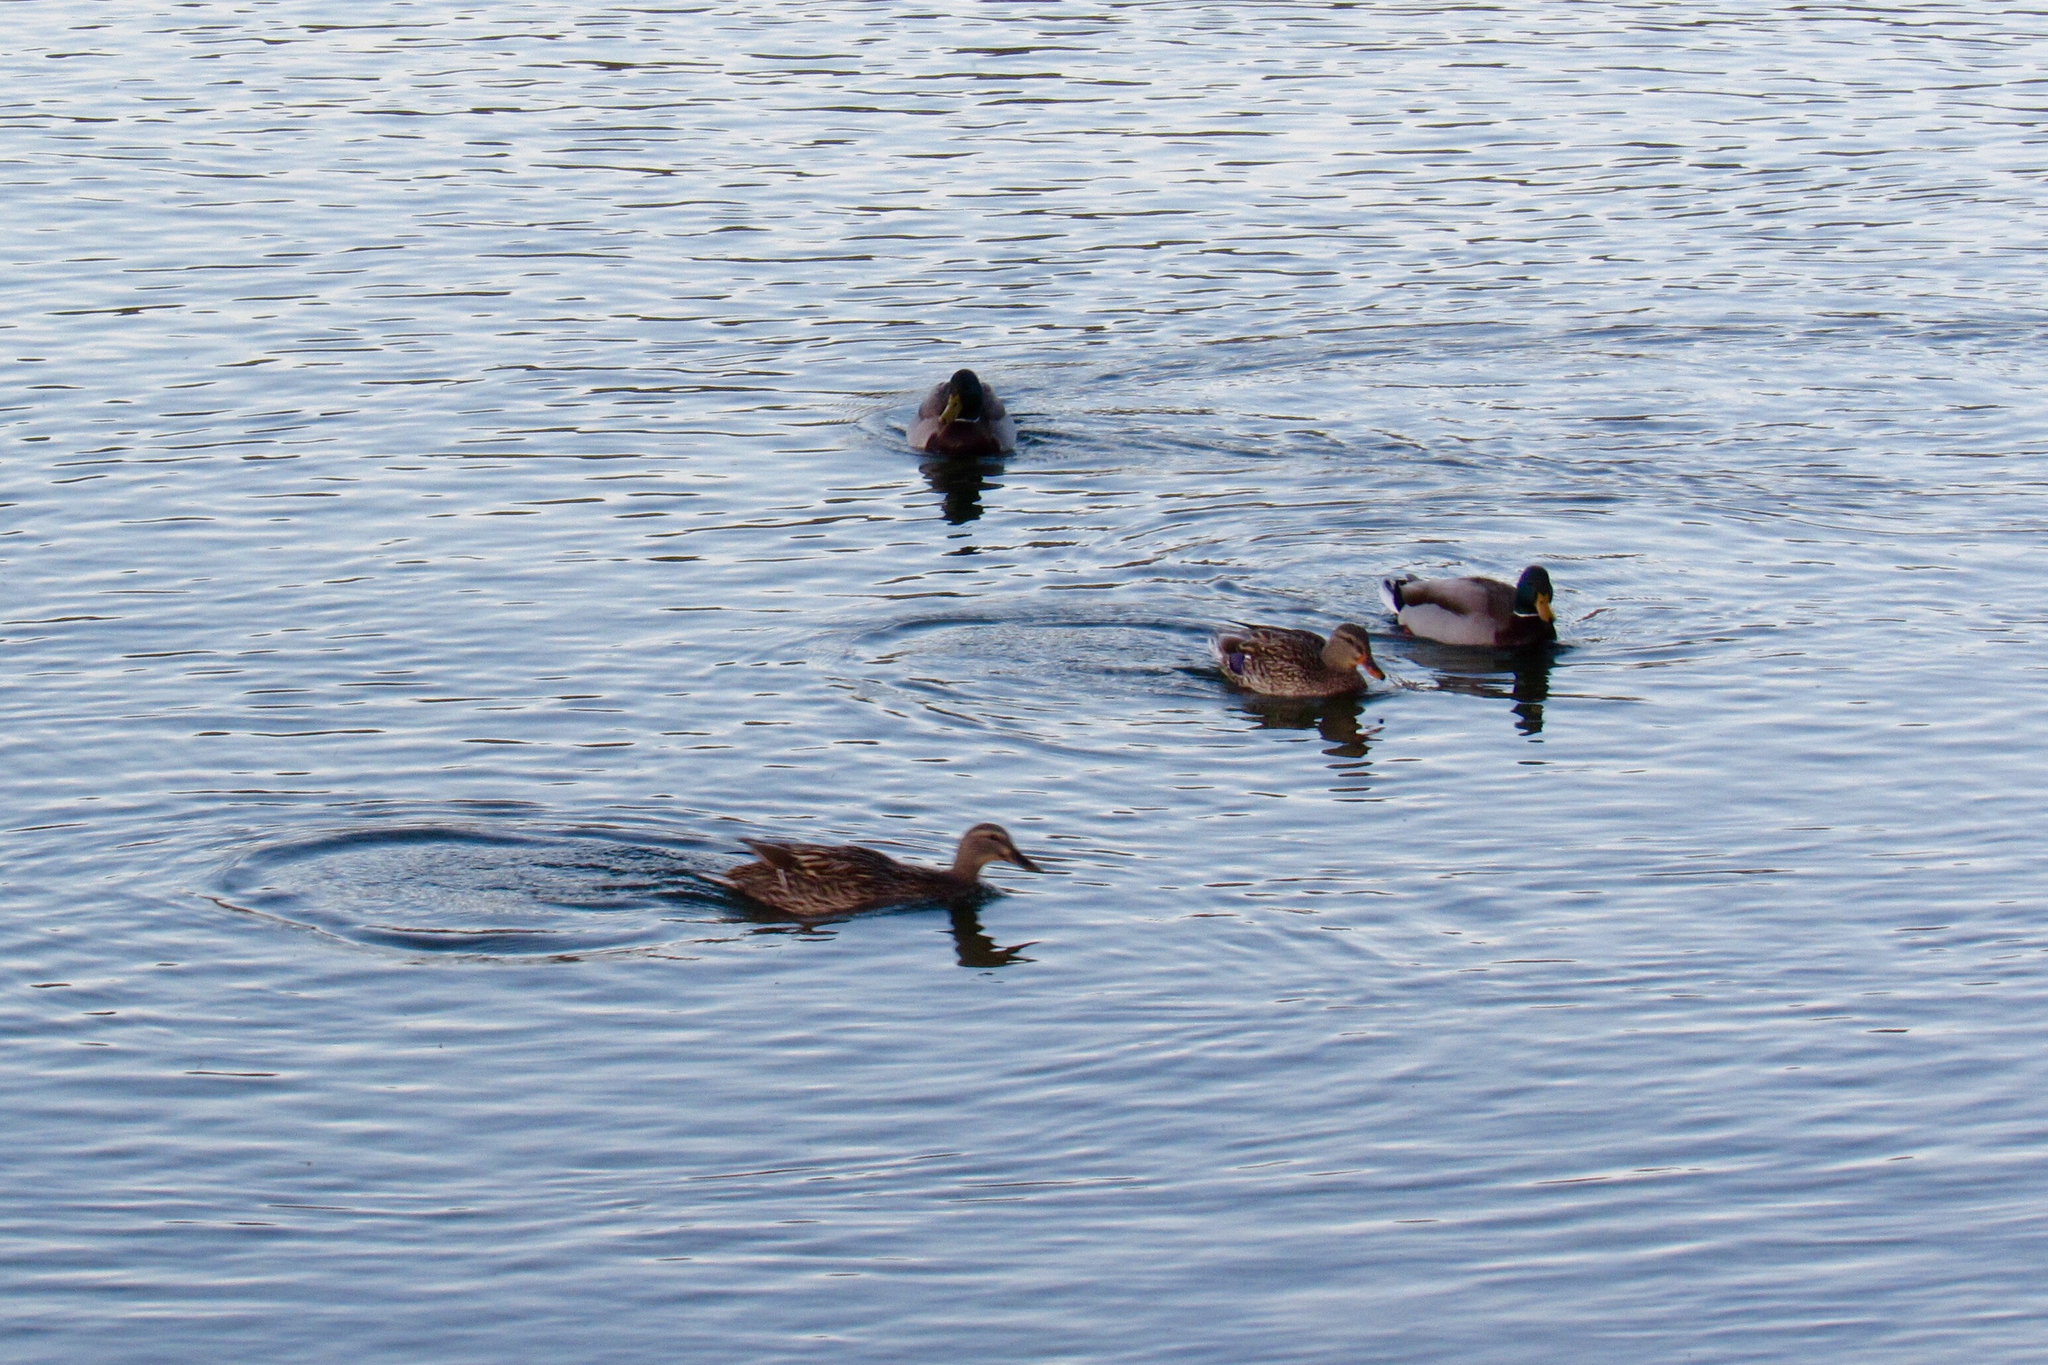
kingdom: Animalia
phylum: Chordata
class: Aves
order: Anseriformes
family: Anatidae
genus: Anas
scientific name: Anas platyrhynchos
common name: Mallard
